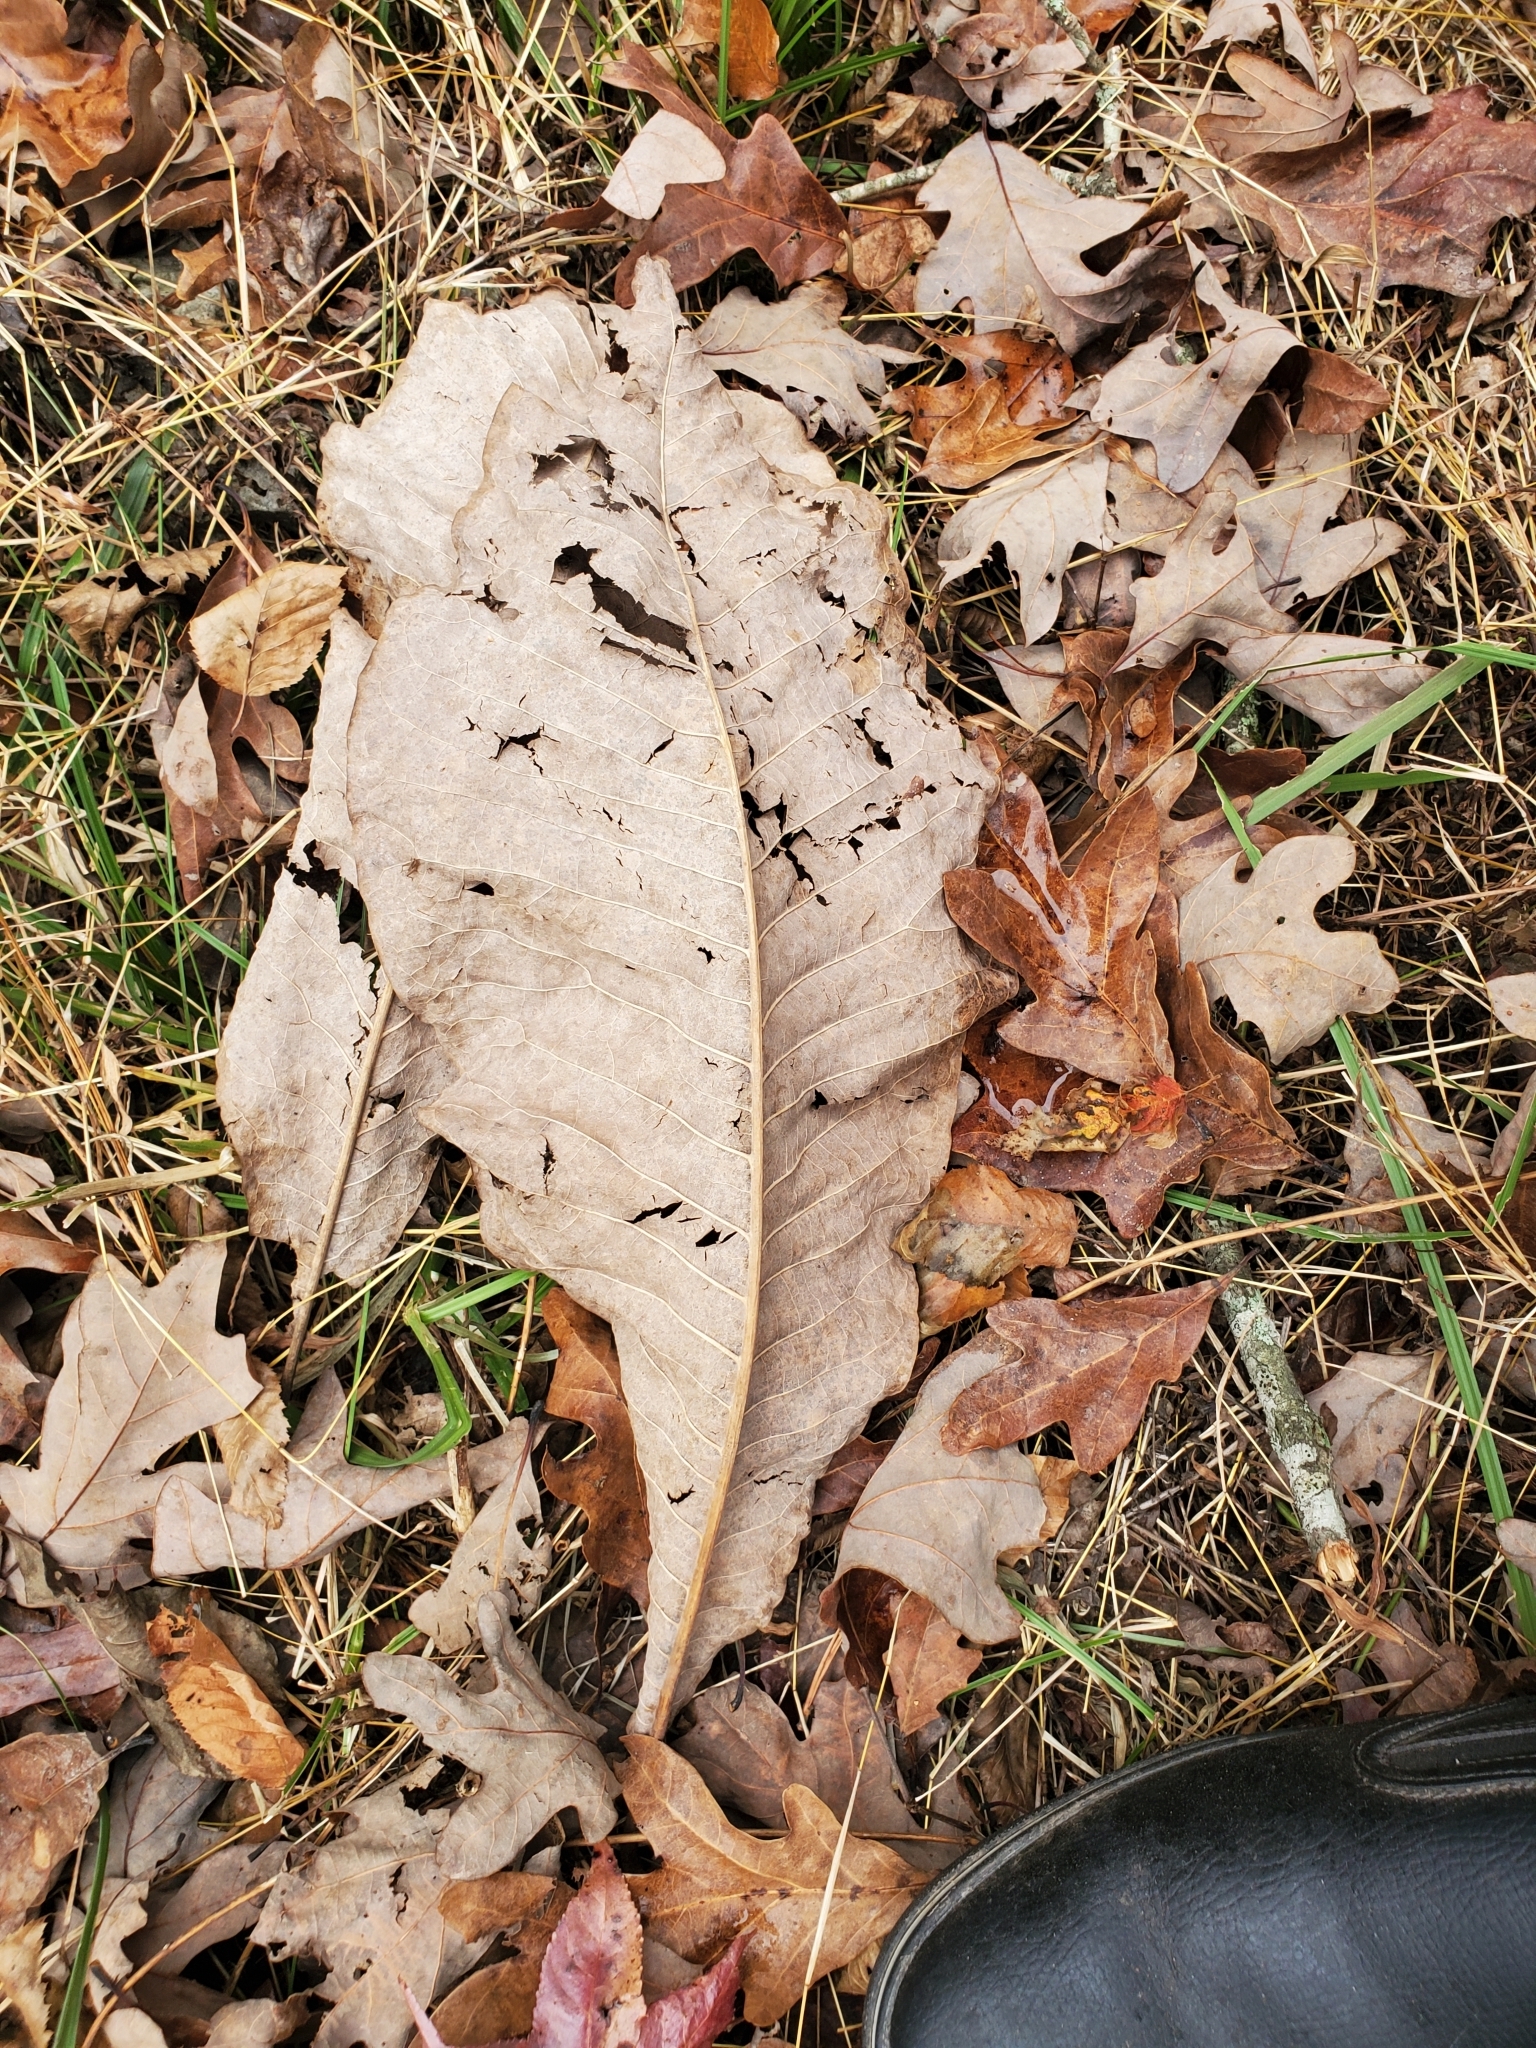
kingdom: Plantae
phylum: Tracheophyta
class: Magnoliopsida
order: Magnoliales
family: Magnoliaceae
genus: Magnolia
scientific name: Magnolia tripetala
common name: Umbrella magnolia
